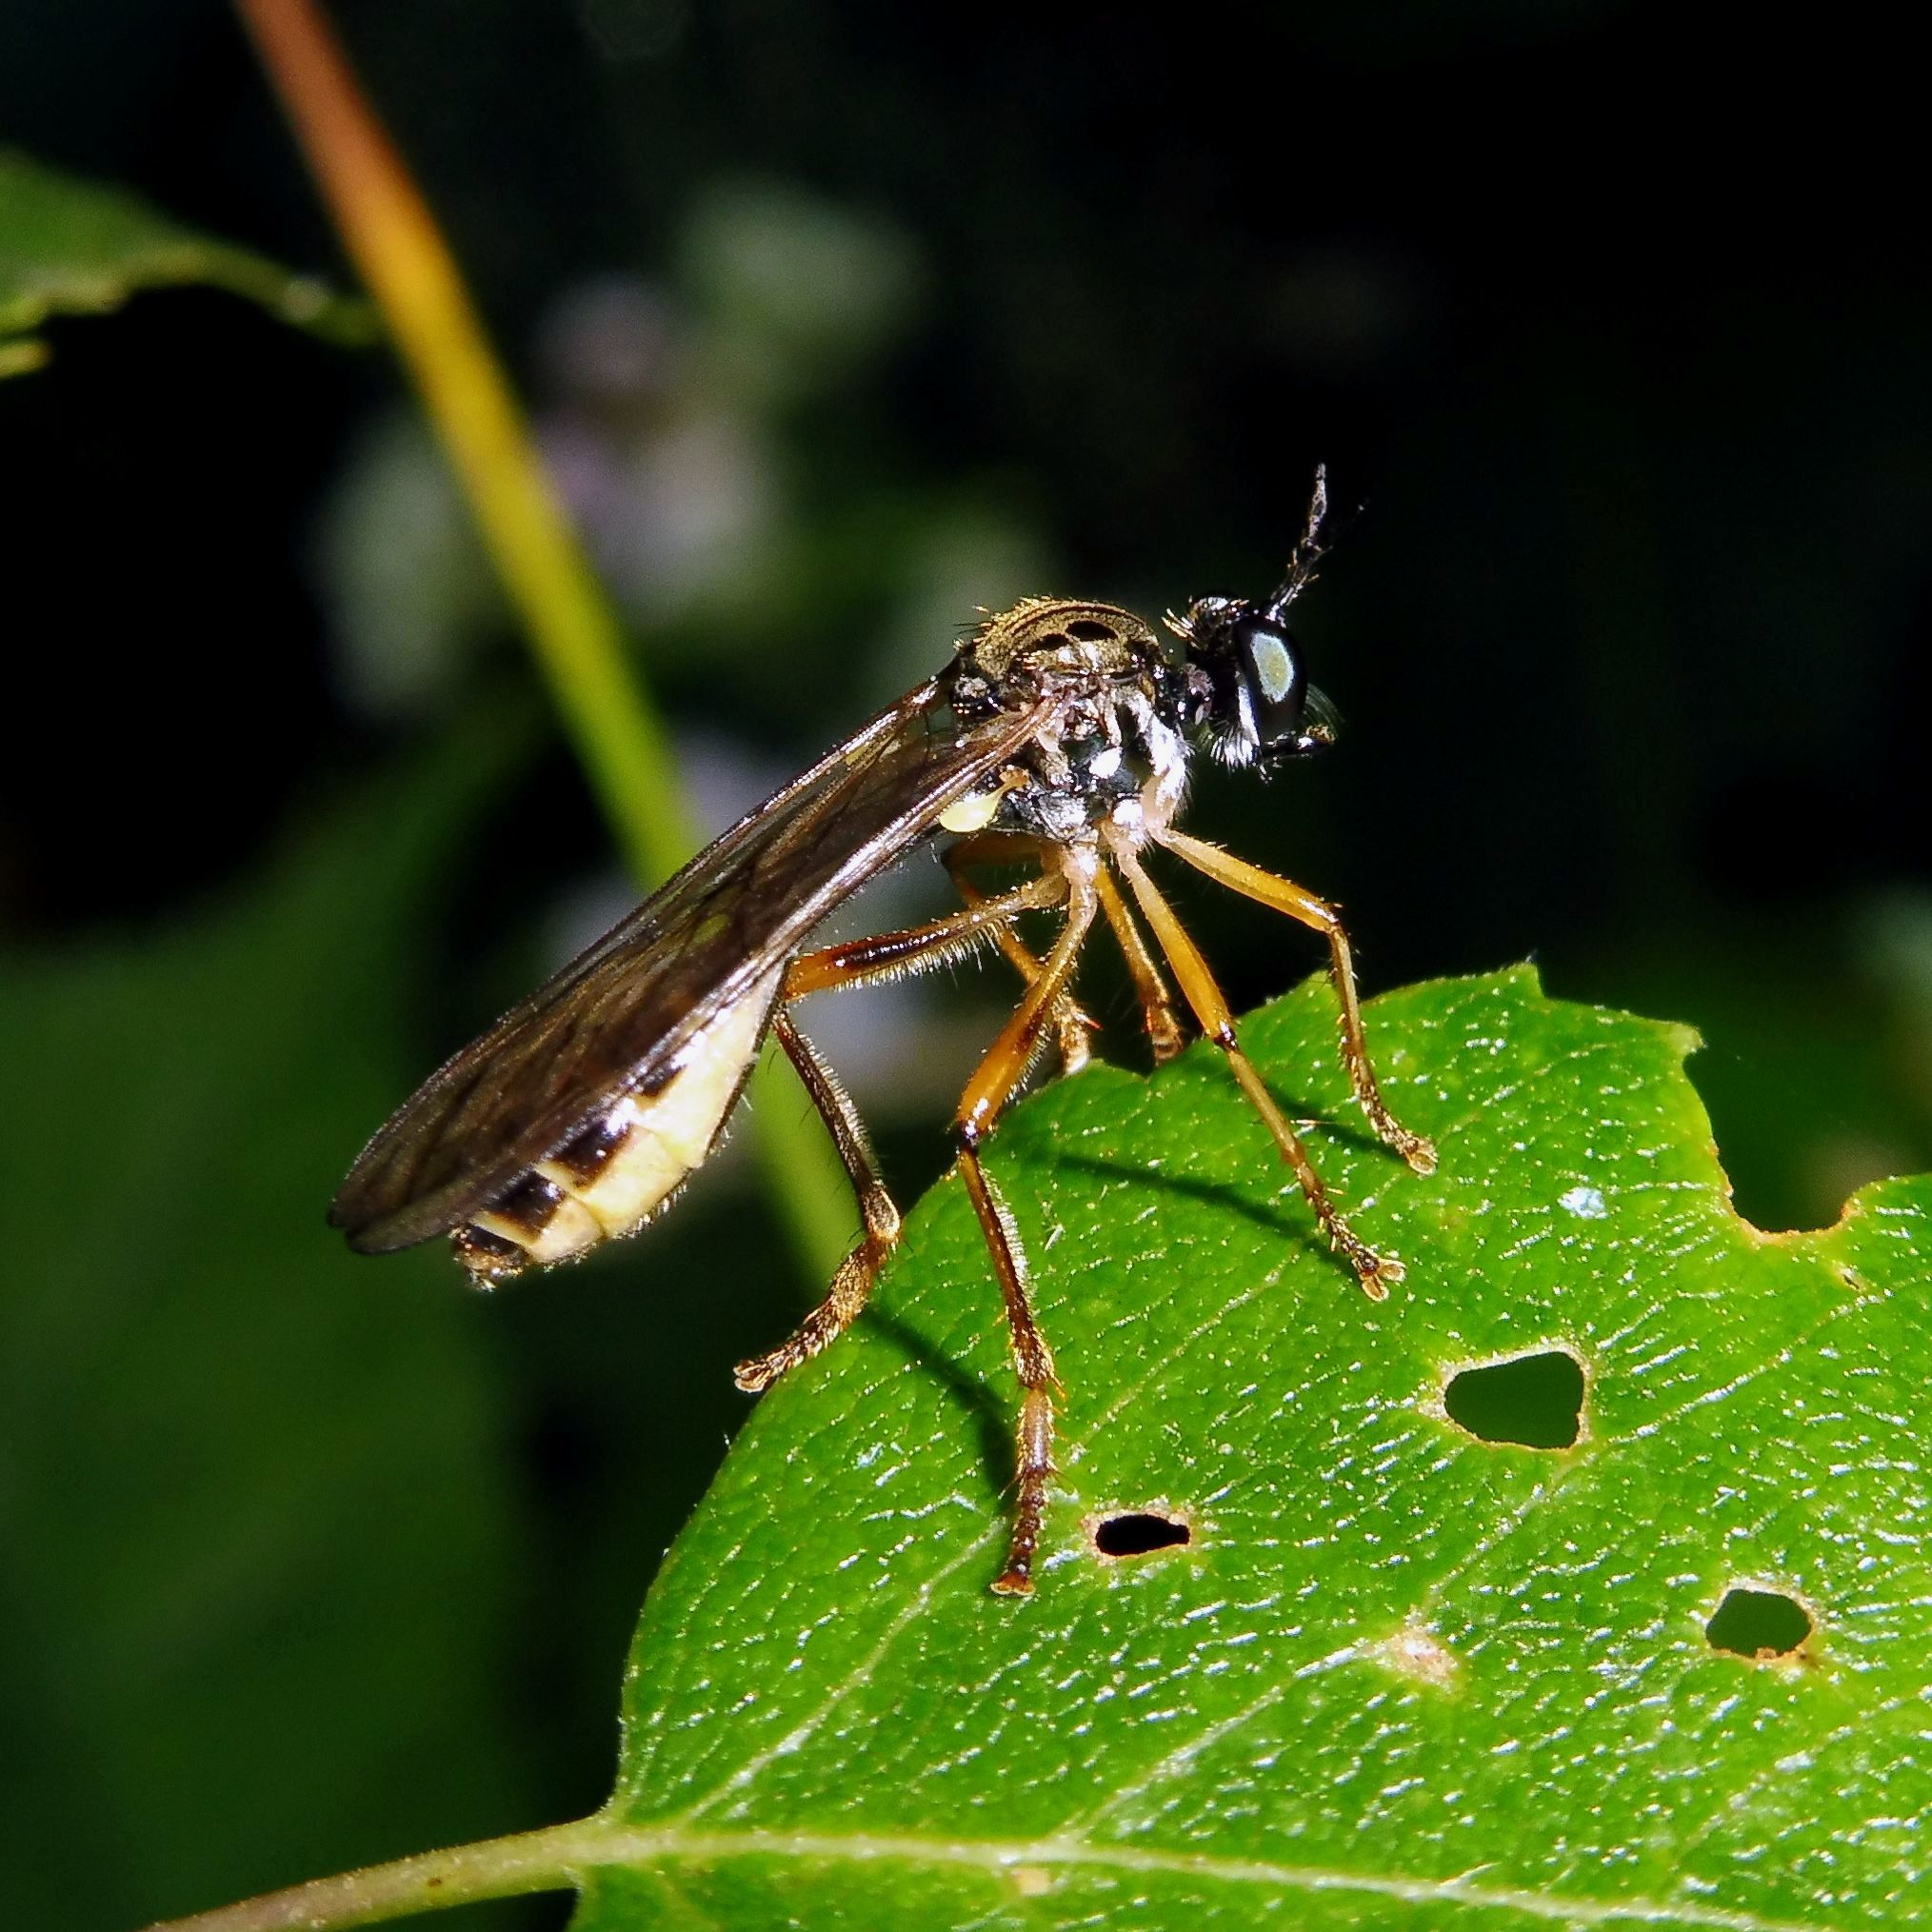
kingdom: Animalia
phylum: Arthropoda
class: Insecta
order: Diptera
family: Asilidae
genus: Dioctria
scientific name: Dioctria linearis
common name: Small yellow-legged robberfly
